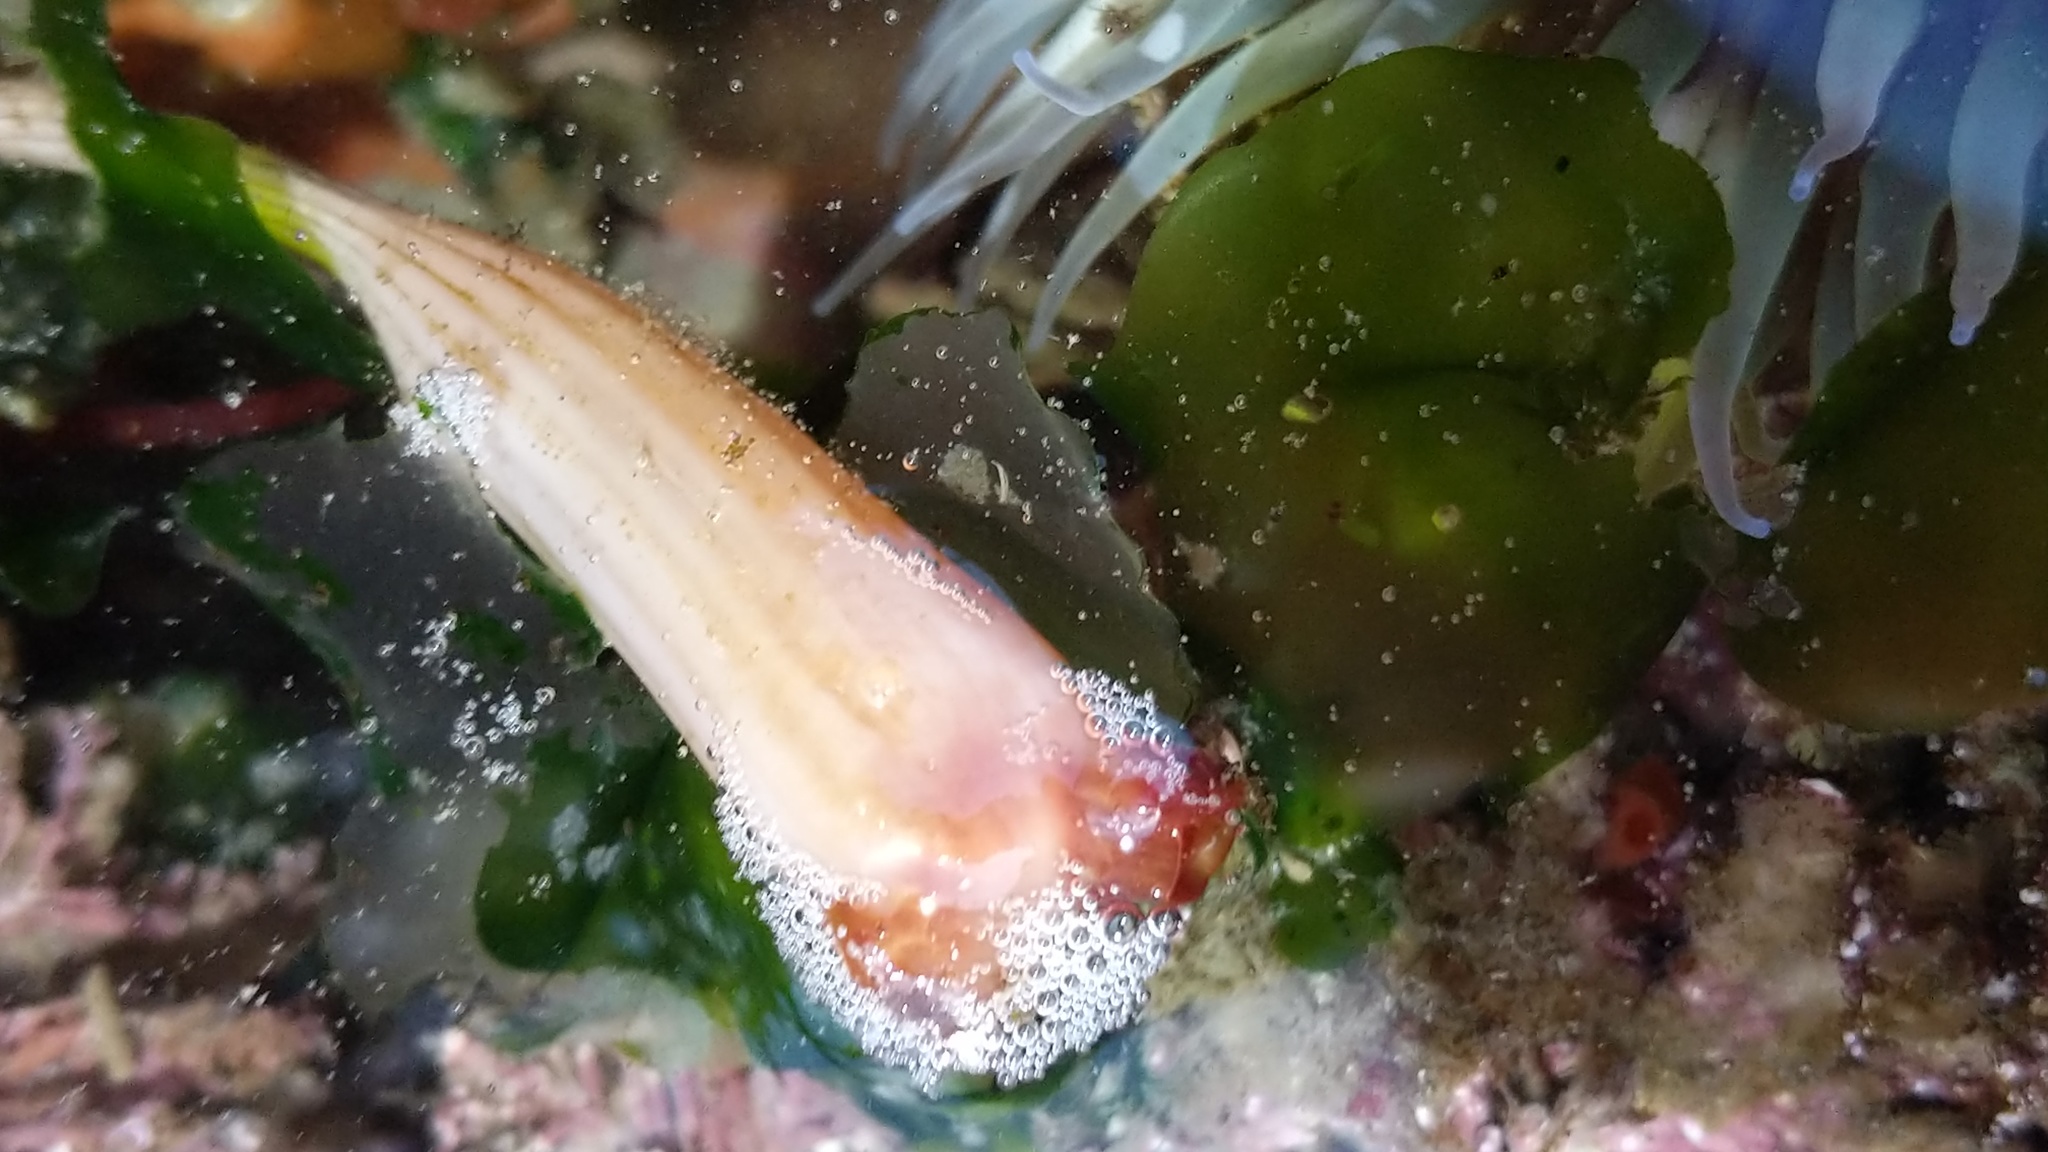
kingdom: Animalia
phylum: Chordata
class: Ascidiacea
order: Stolidobranchia
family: Styelidae
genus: Styela
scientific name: Styela montereyensis
